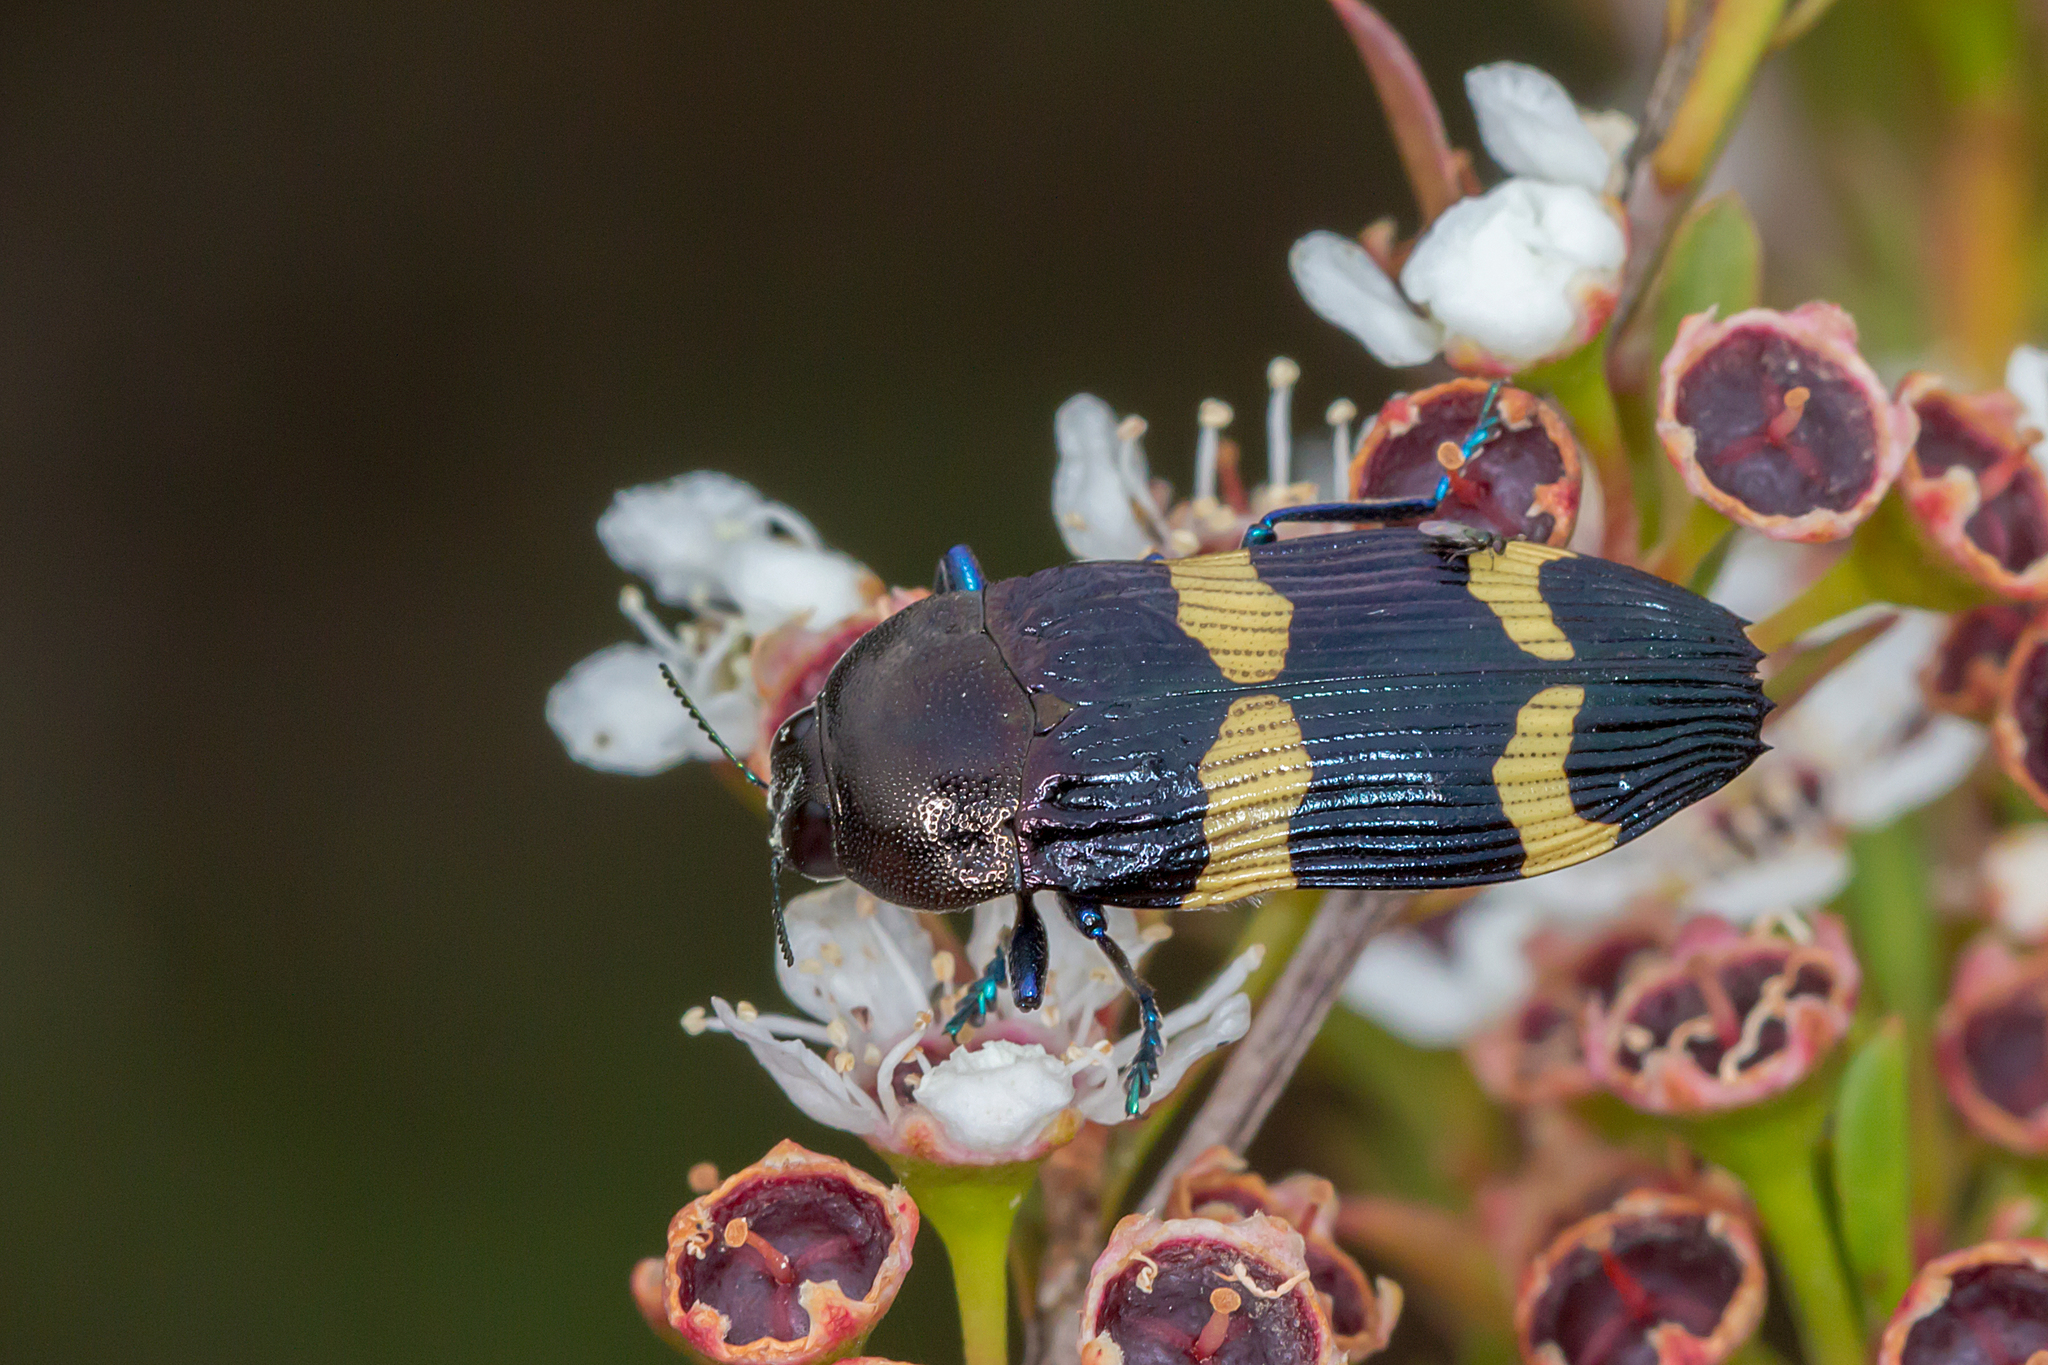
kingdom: Animalia
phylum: Arthropoda
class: Insecta
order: Coleoptera
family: Buprestidae
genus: Castiarina
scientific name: Castiarina bifasciata
